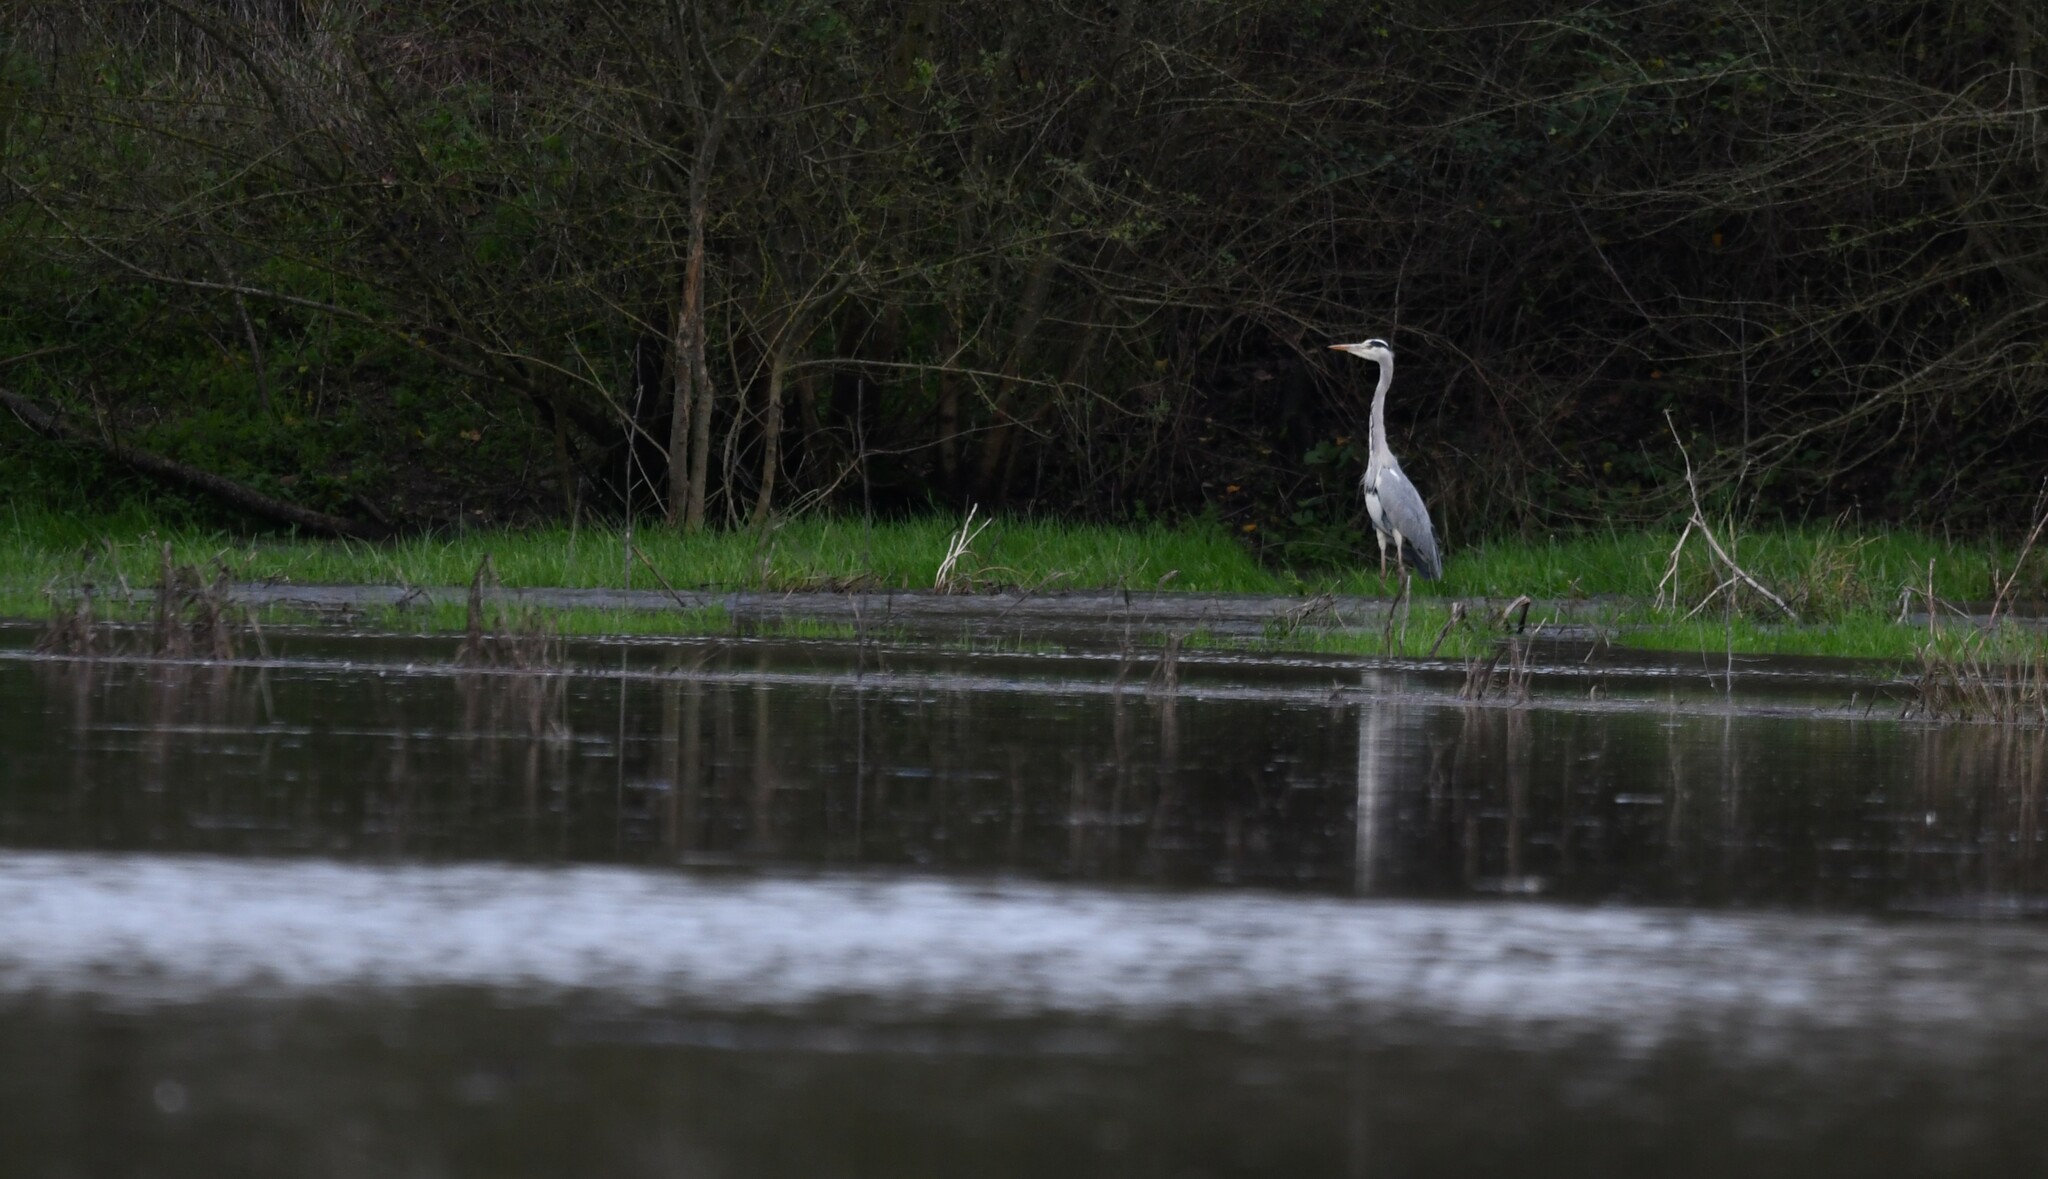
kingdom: Animalia
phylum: Chordata
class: Aves
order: Pelecaniformes
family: Ardeidae
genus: Ardea
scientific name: Ardea cinerea
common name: Grey heron
